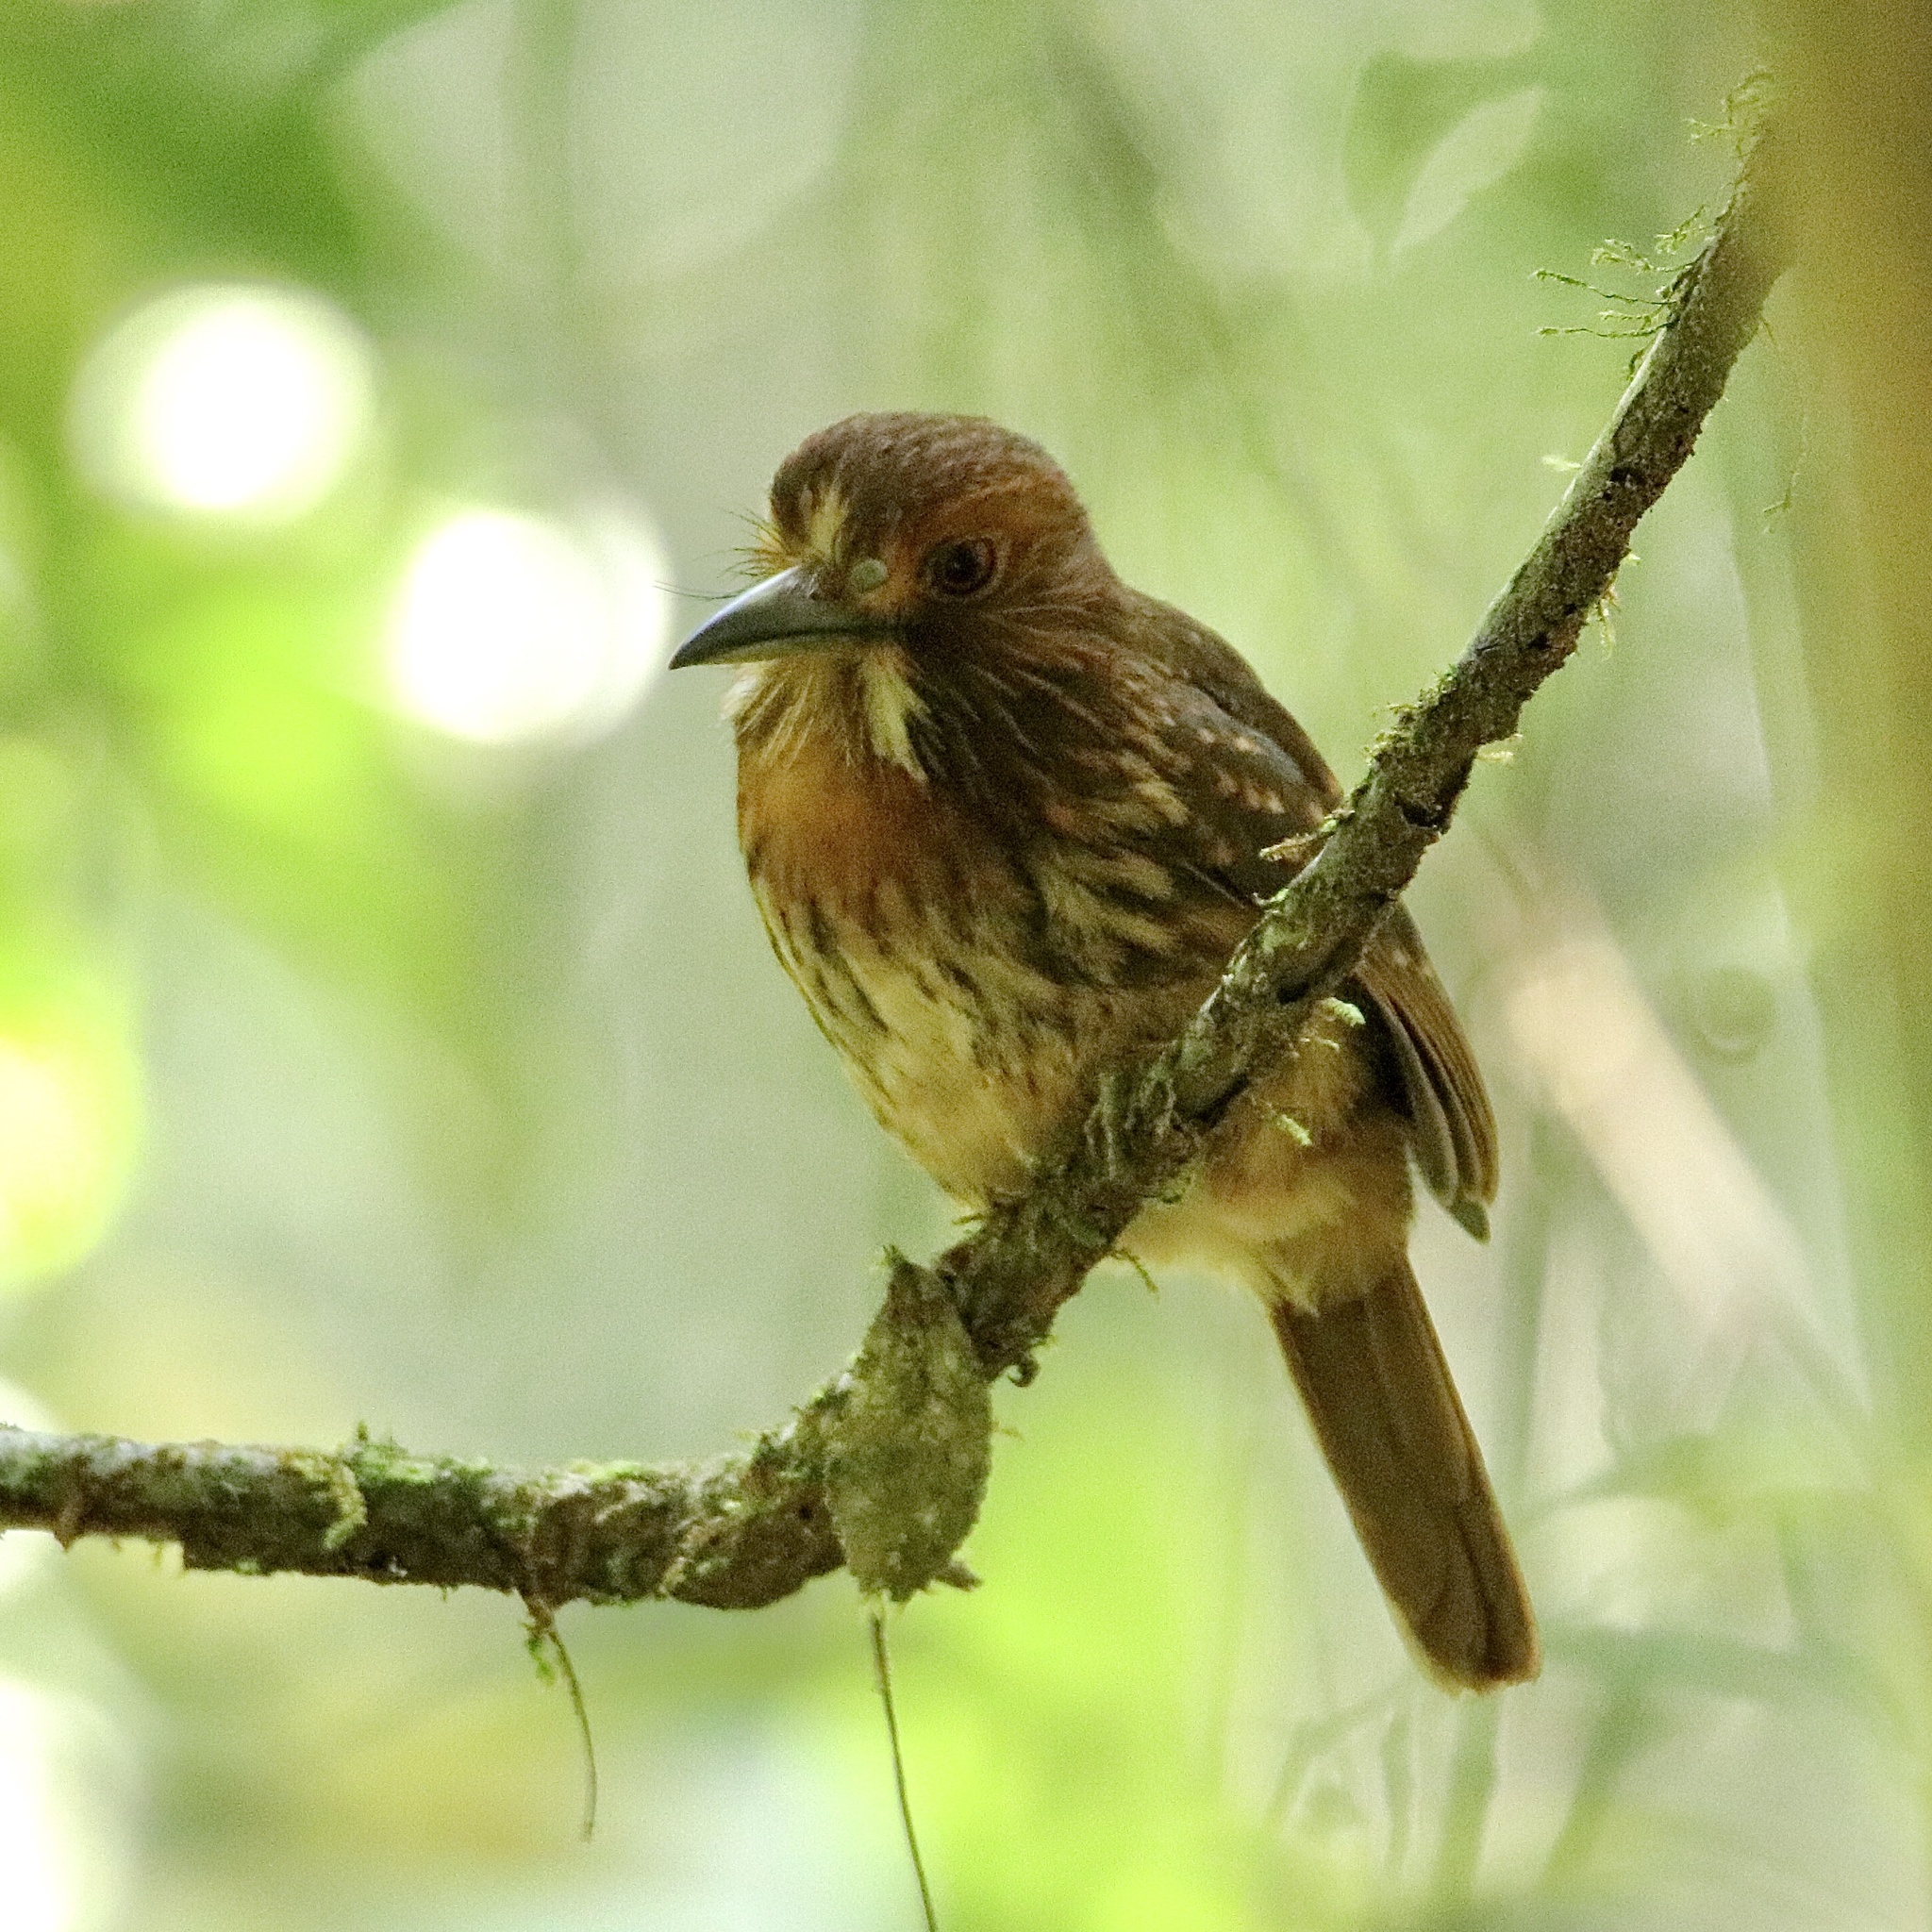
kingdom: Animalia
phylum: Chordata
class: Aves
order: Piciformes
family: Bucconidae
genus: Malacoptila
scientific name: Malacoptila panamensis
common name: White-whiskered puffbird
